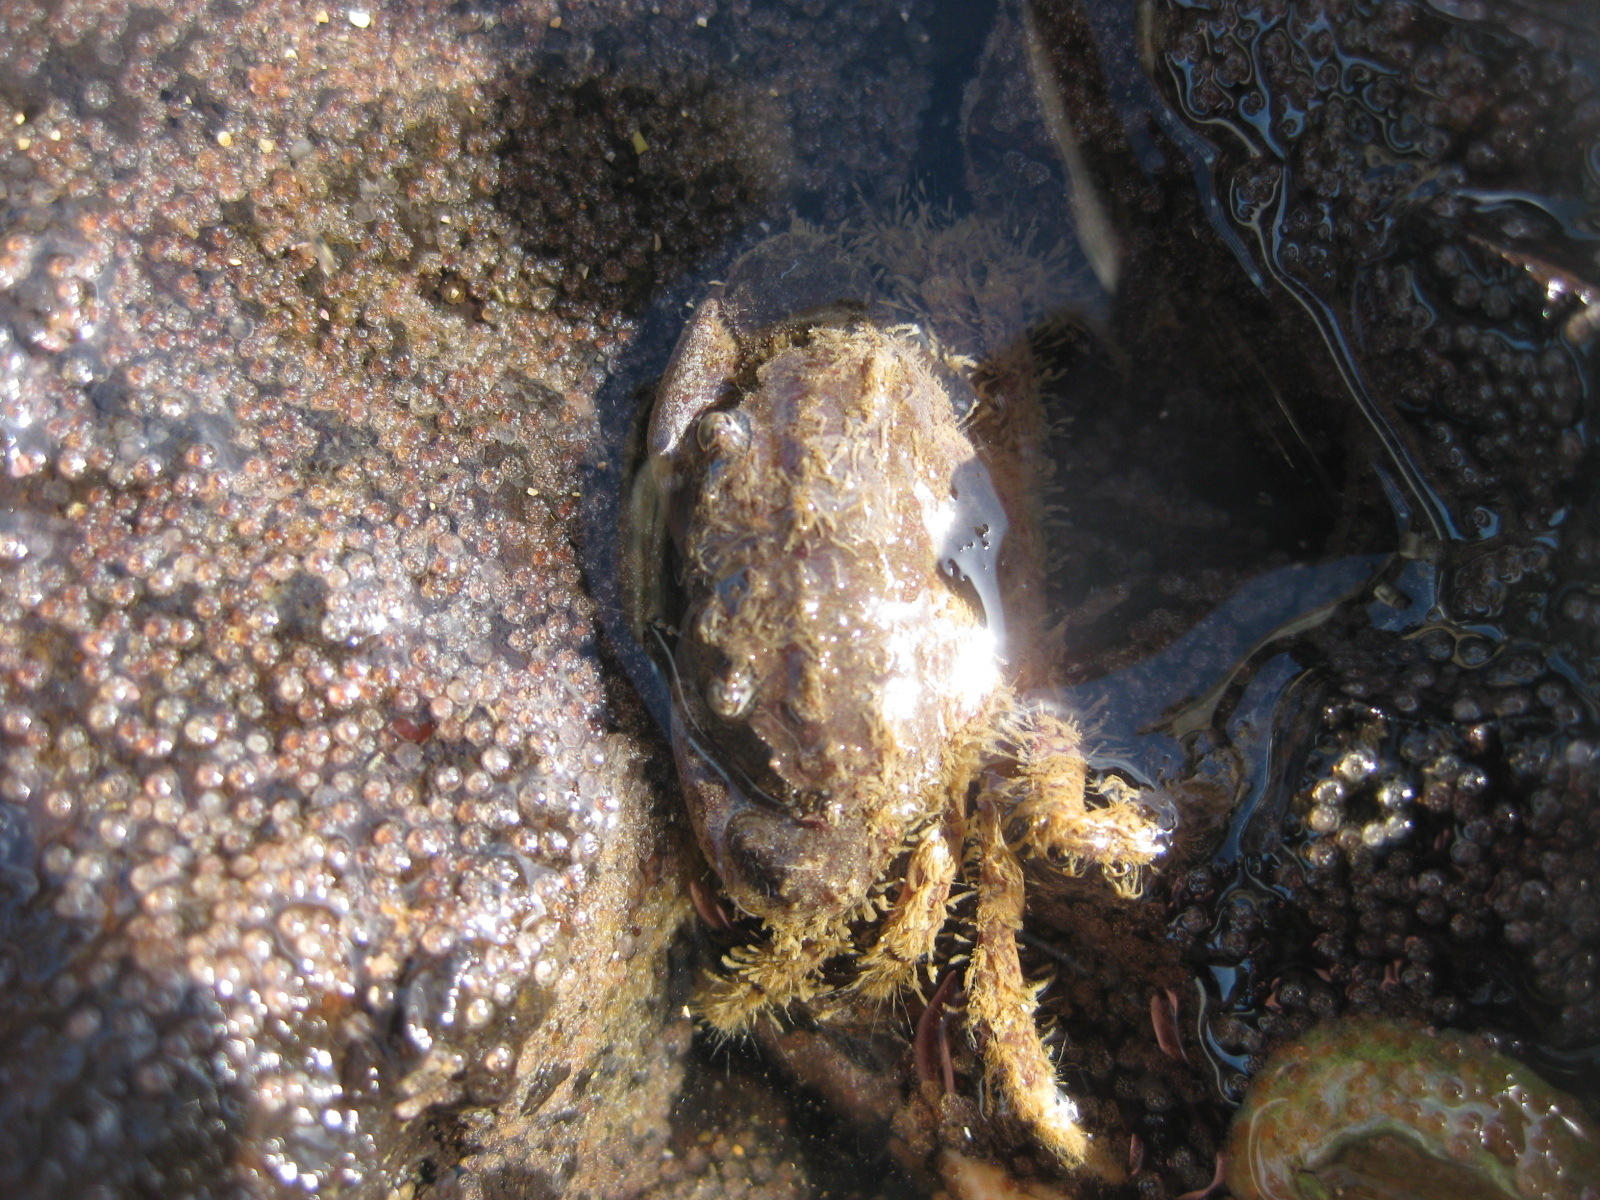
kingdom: Animalia
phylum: Arthropoda
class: Malacostraca
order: Decapoda
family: Pilumnidae
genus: Pilumnopeus
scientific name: Pilumnopeus serratifrons
